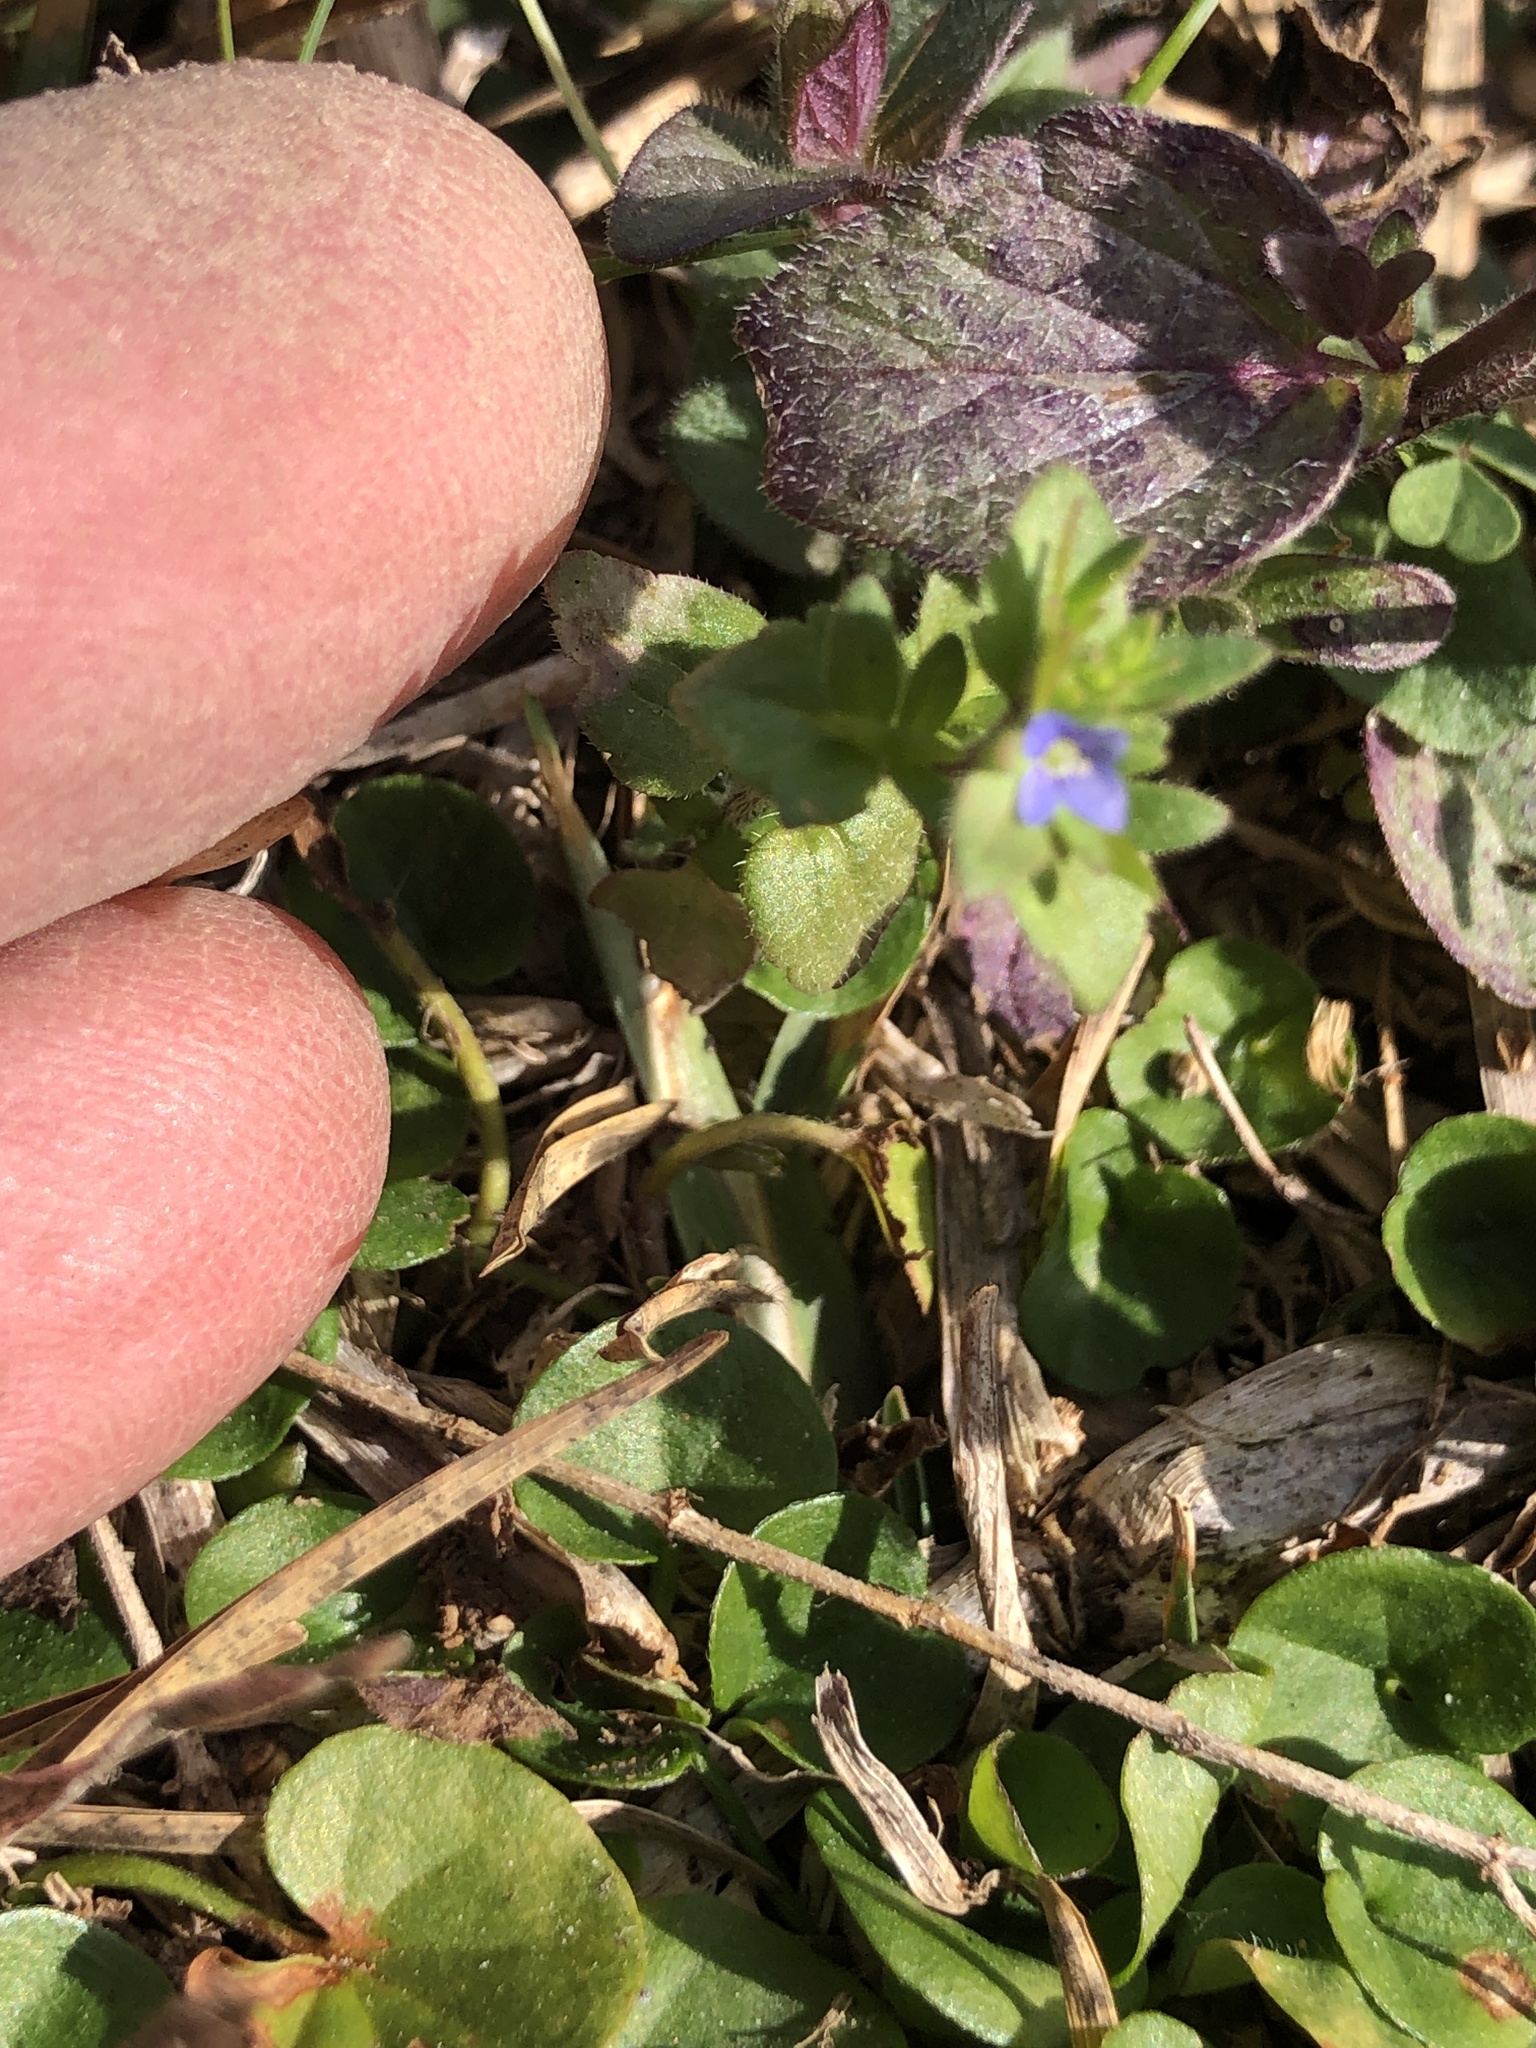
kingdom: Plantae
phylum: Tracheophyta
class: Magnoliopsida
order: Lamiales
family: Plantaginaceae
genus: Veronica
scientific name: Veronica arvensis
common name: Corn speedwell
